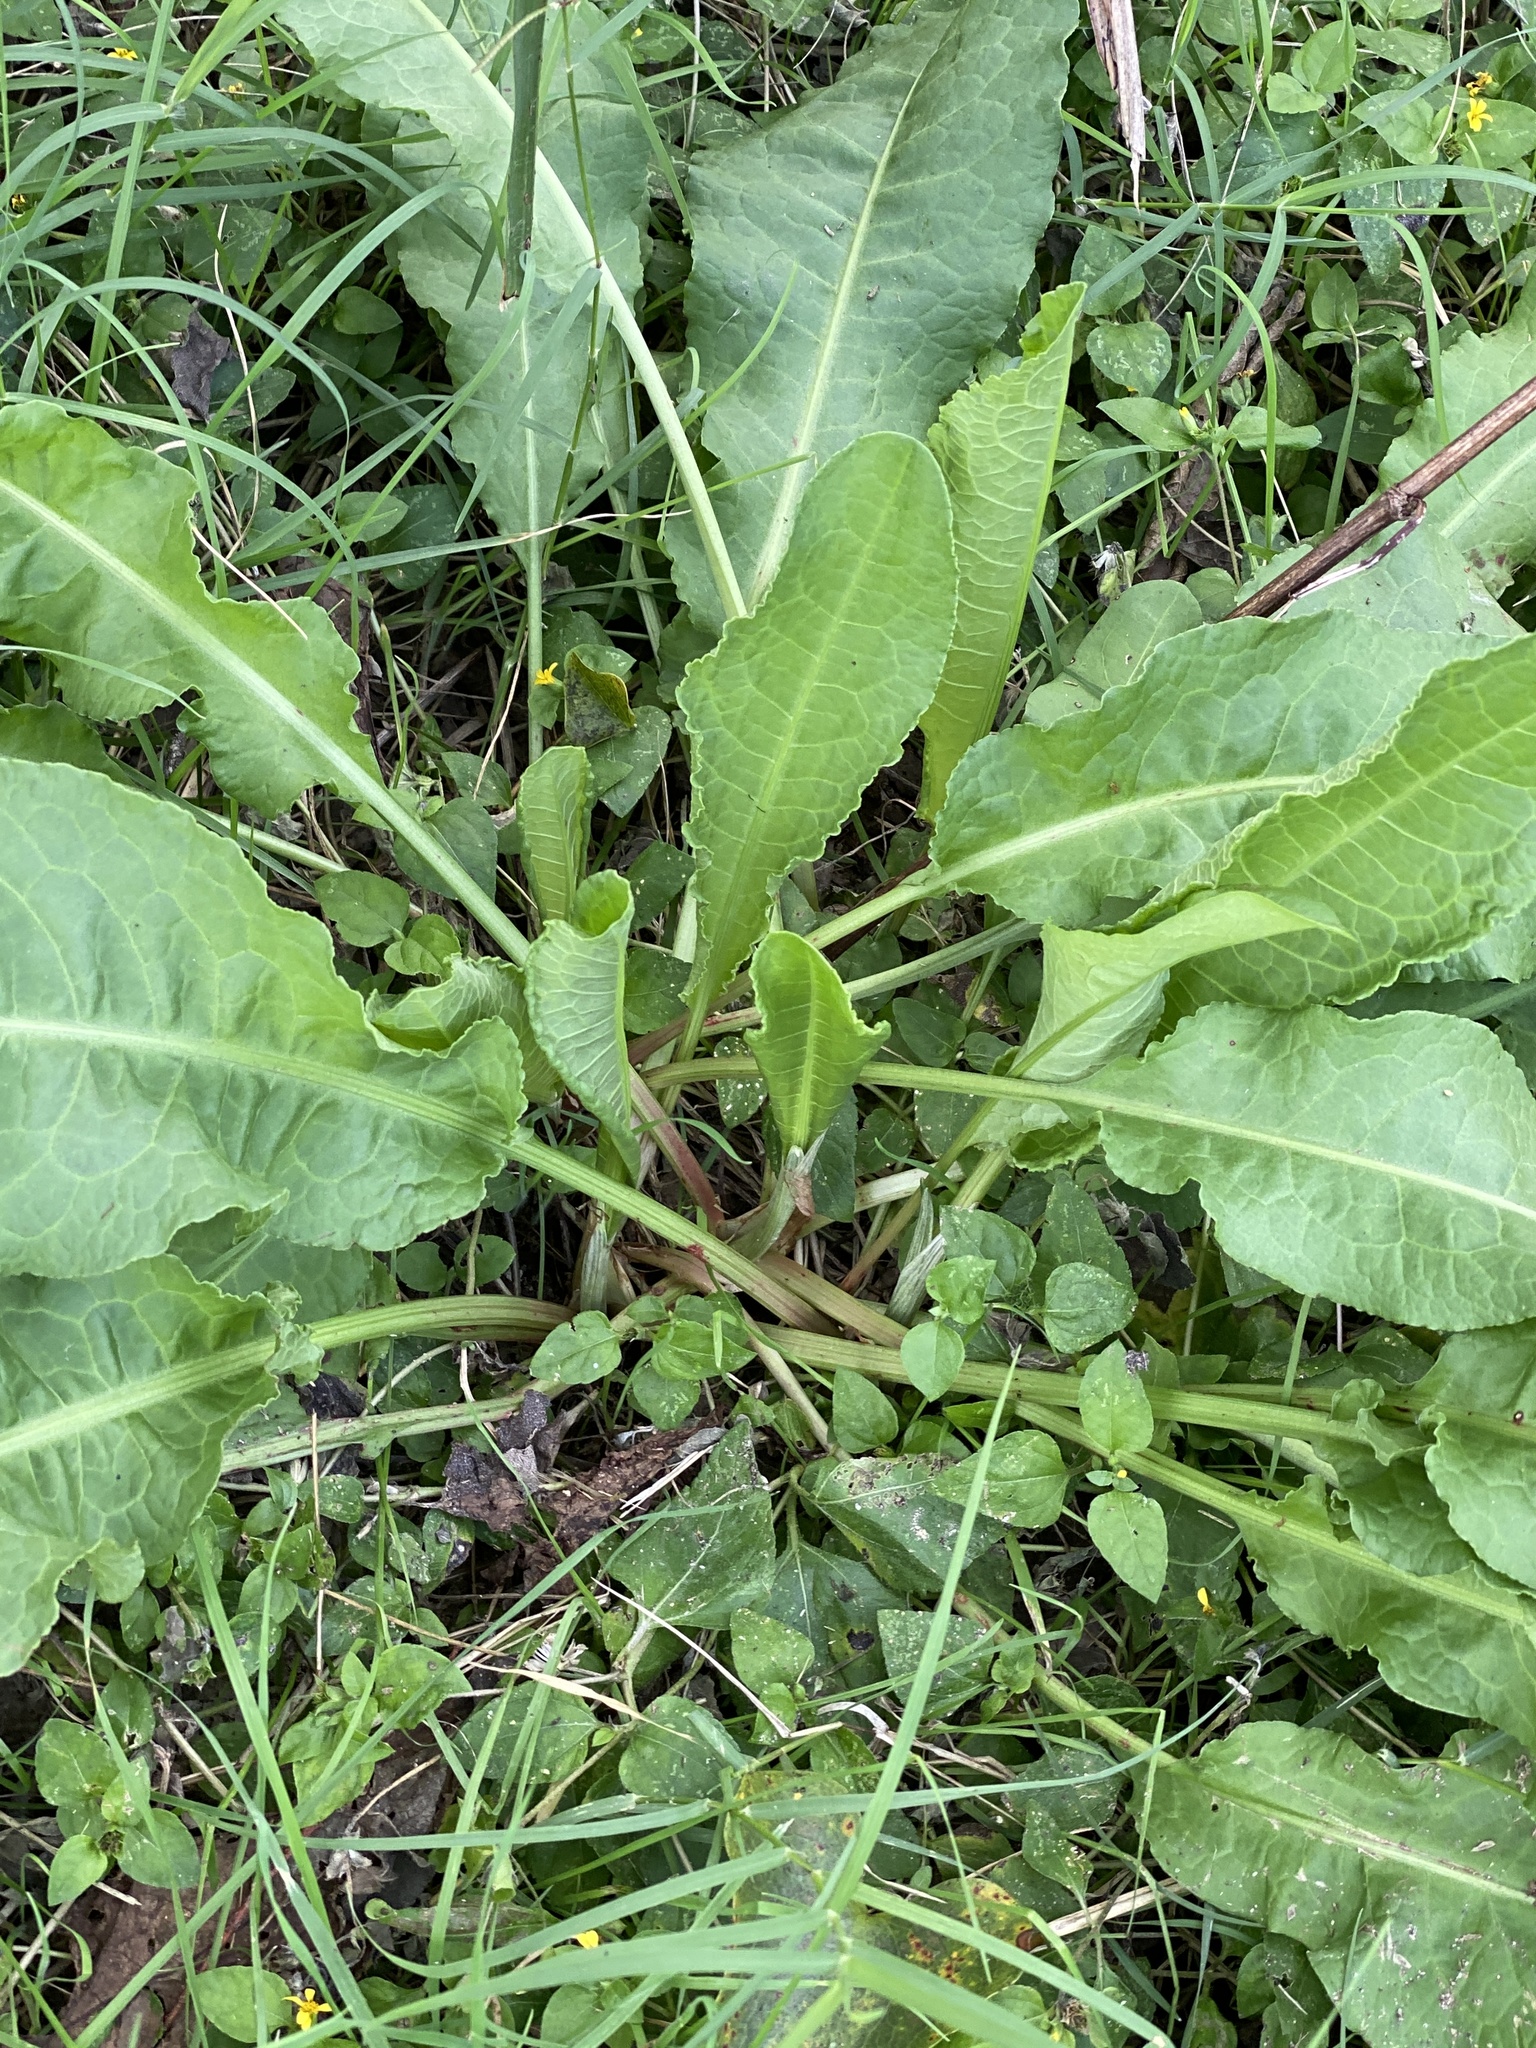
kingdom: Plantae
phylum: Tracheophyta
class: Magnoliopsida
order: Caryophyllales
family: Polygonaceae
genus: Rumex
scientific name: Rumex crispus
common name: Curled dock
